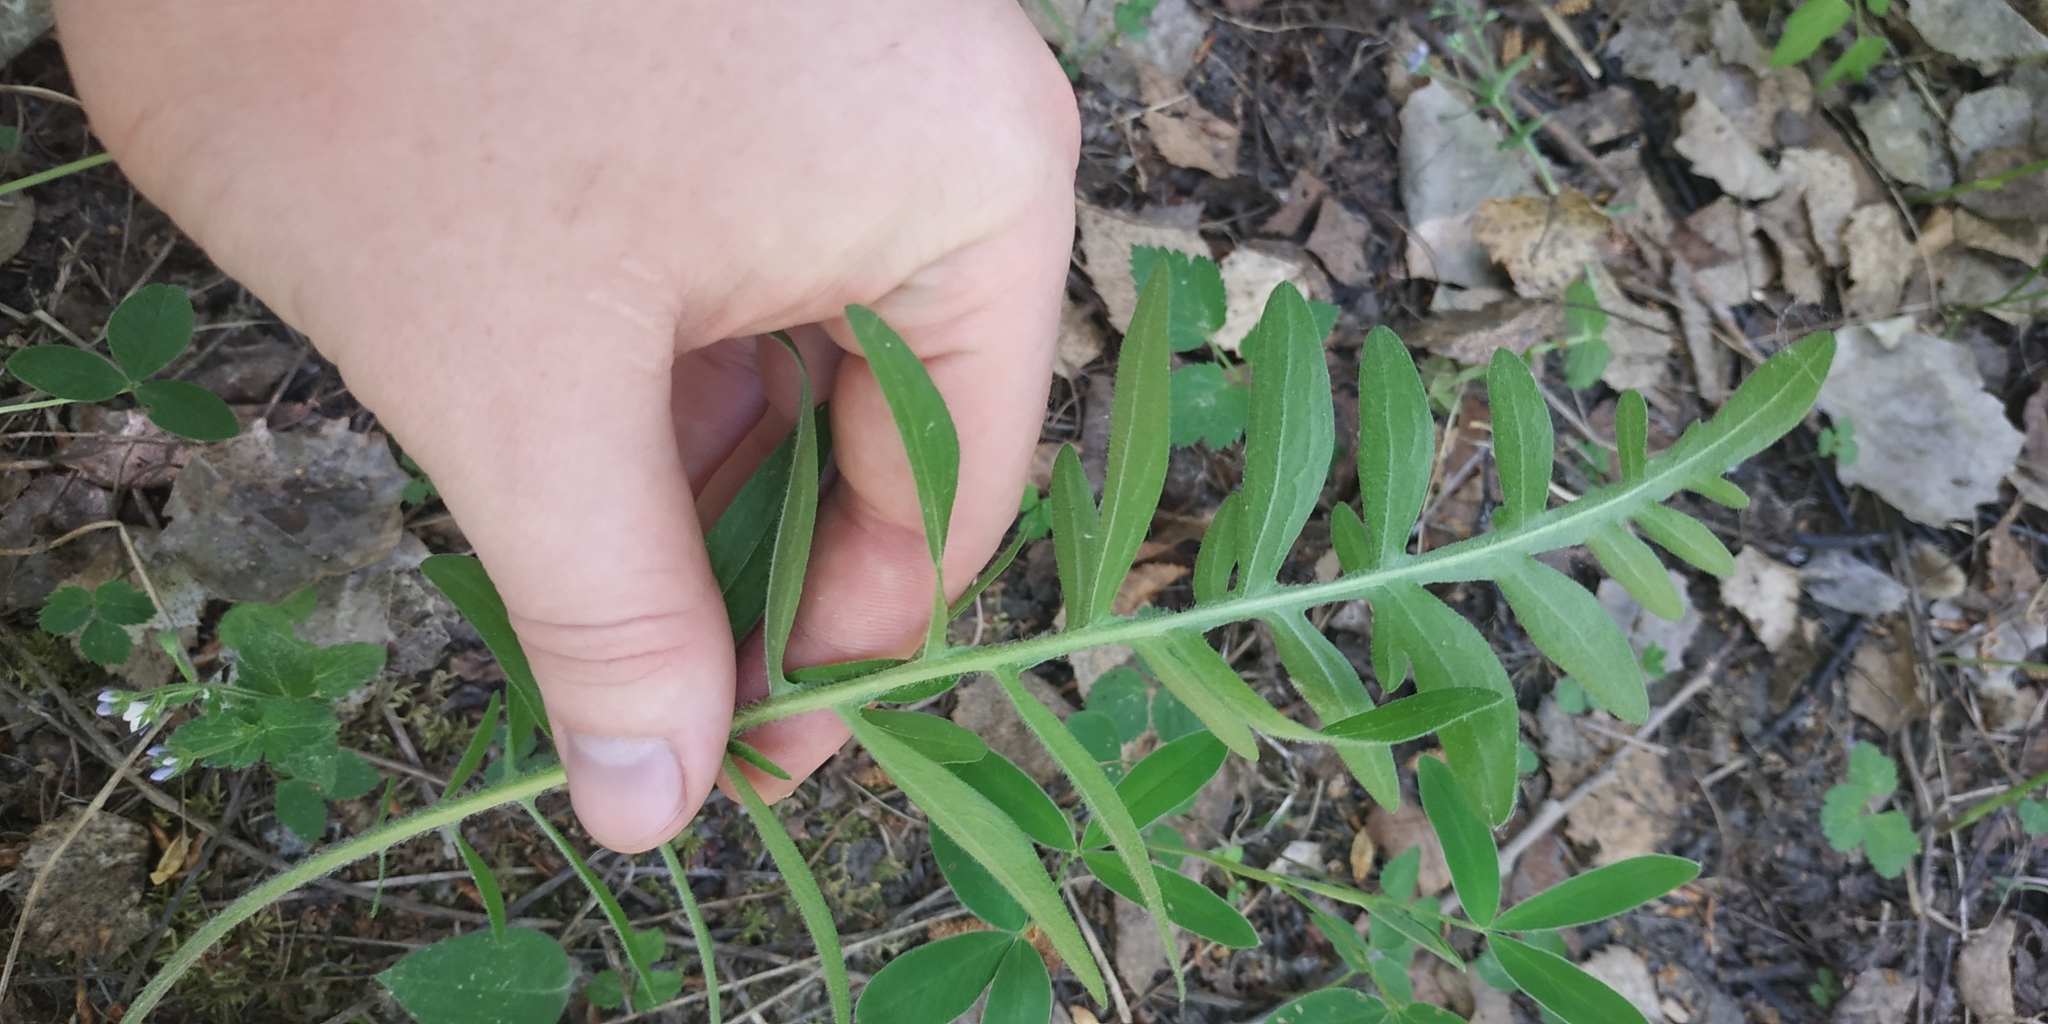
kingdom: Plantae
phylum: Tracheophyta
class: Magnoliopsida
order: Asterales
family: Asteraceae
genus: Centaurea
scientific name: Centaurea scabiosa
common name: Greater knapweed
